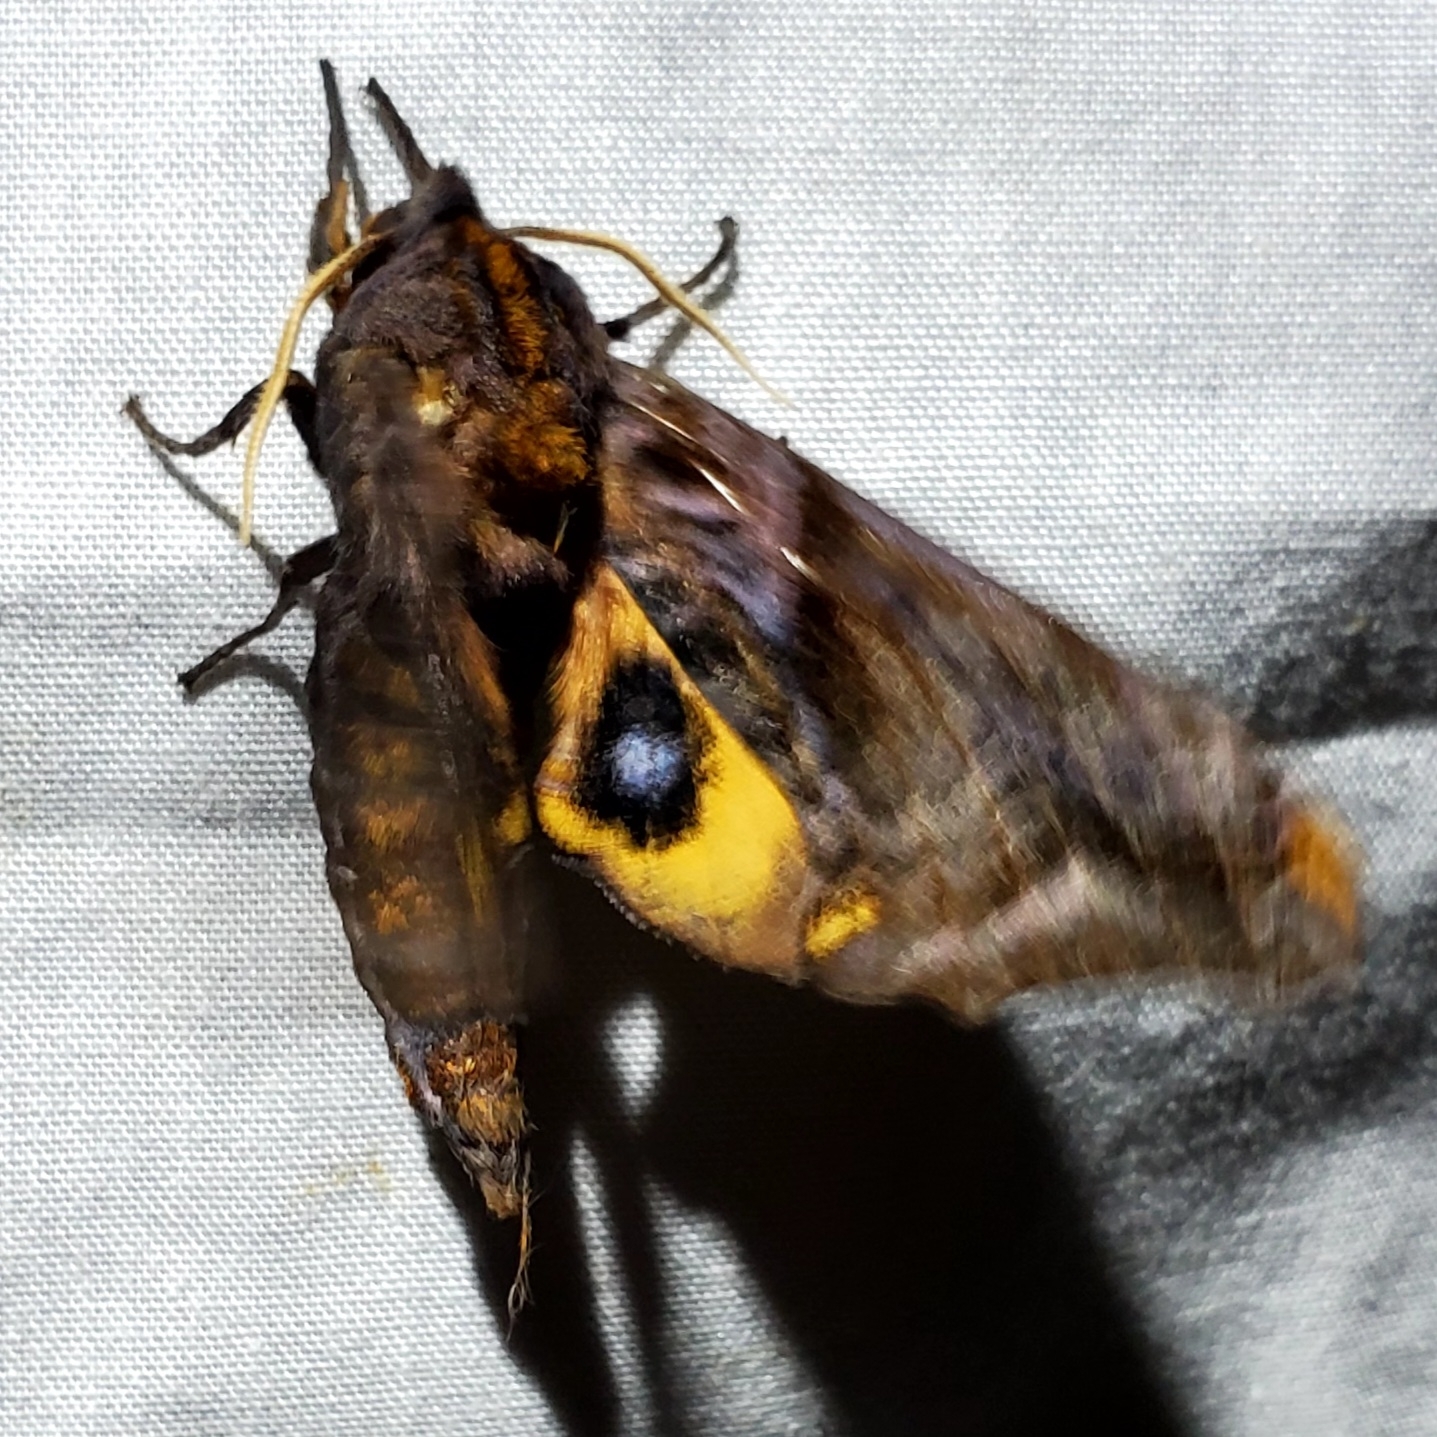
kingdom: Animalia
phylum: Arthropoda
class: Insecta
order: Lepidoptera
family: Sphingidae
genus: Paonias
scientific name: Paonias myops
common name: Small-eyed sphinx
